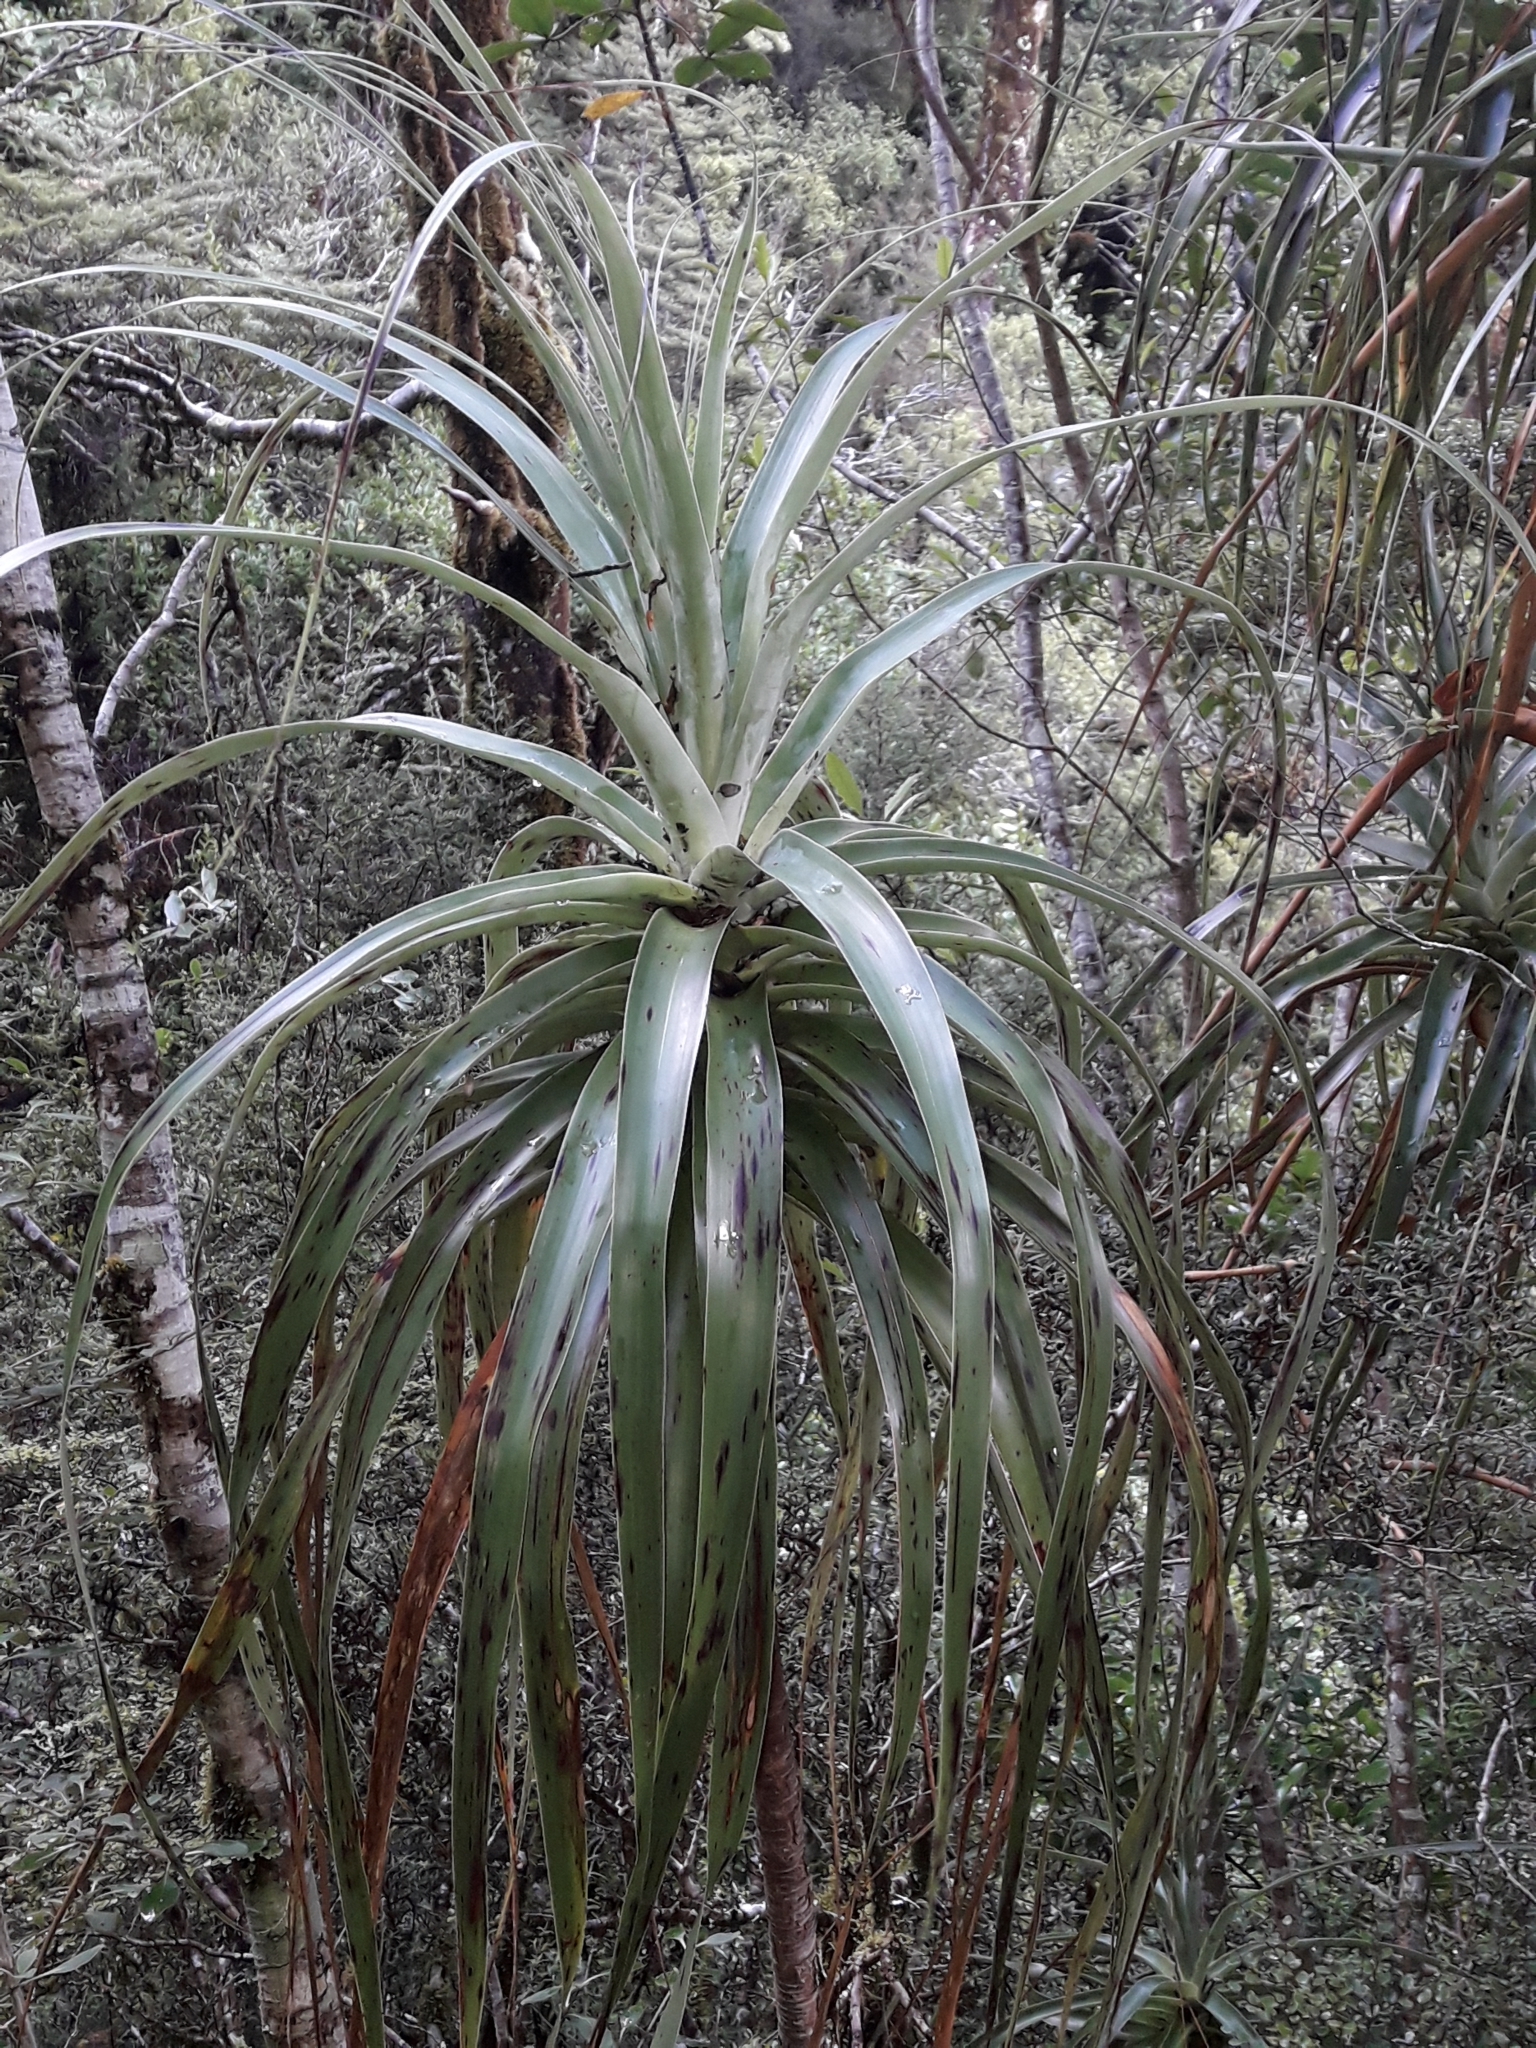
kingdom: Plantae
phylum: Tracheophyta
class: Magnoliopsida
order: Ericales
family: Ericaceae
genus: Dracophyllum
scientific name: Dracophyllum traversii
